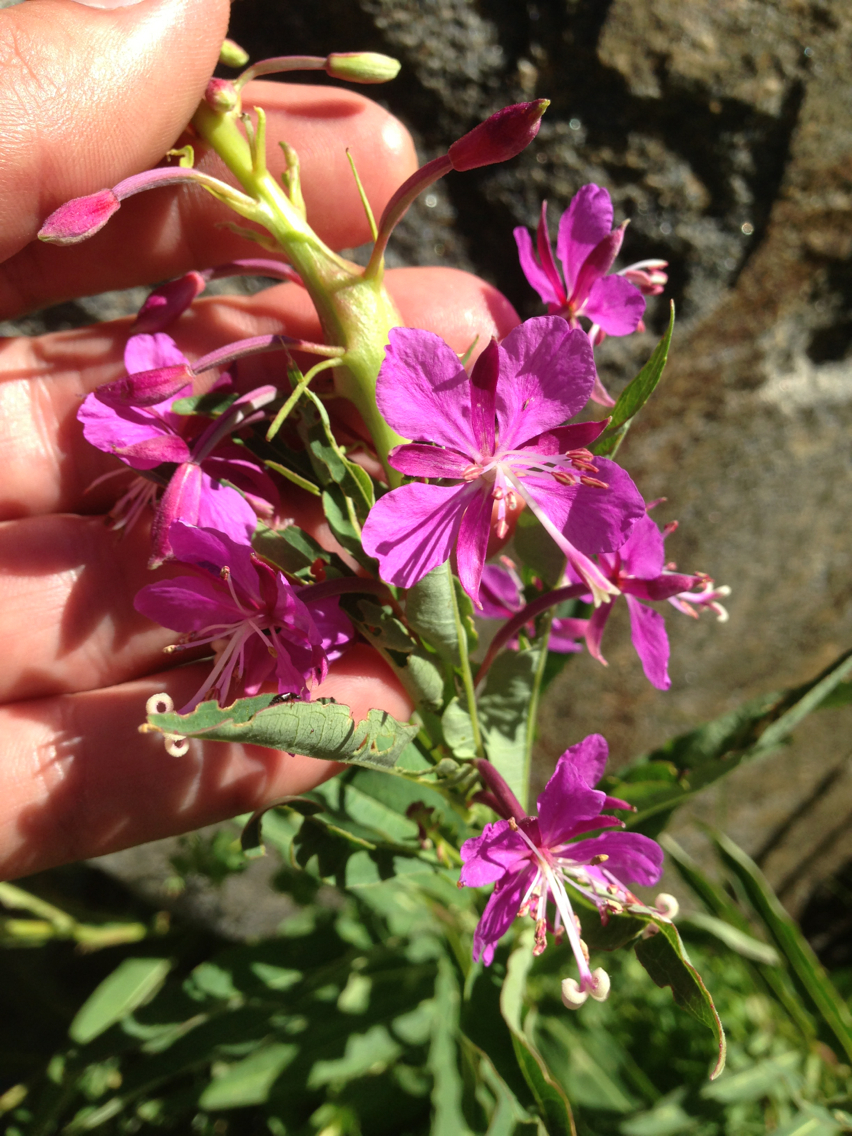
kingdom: Plantae
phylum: Tracheophyta
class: Magnoliopsida
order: Myrtales
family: Onagraceae
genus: Chamaenerion
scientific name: Chamaenerion angustifolium
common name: Fireweed
